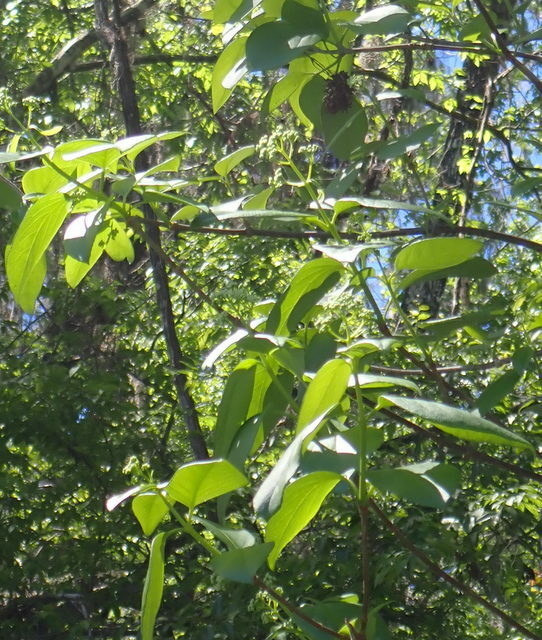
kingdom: Plantae
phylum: Tracheophyta
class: Magnoliopsida
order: Cornales
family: Hydrangeaceae
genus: Hydrangea
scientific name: Hydrangea barbara
